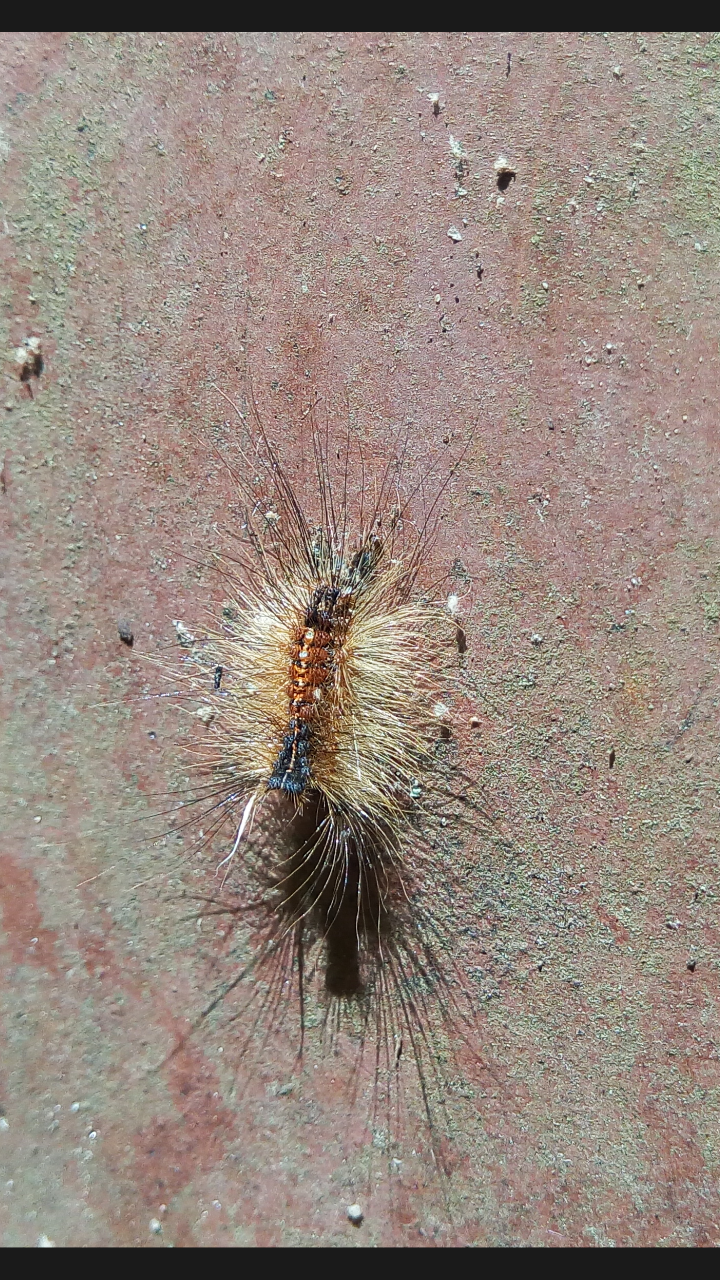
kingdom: Animalia
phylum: Arthropoda
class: Insecta
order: Lepidoptera
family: Erebidae
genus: Lymantria
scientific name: Lymantria dispar
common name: Gypsy moth
